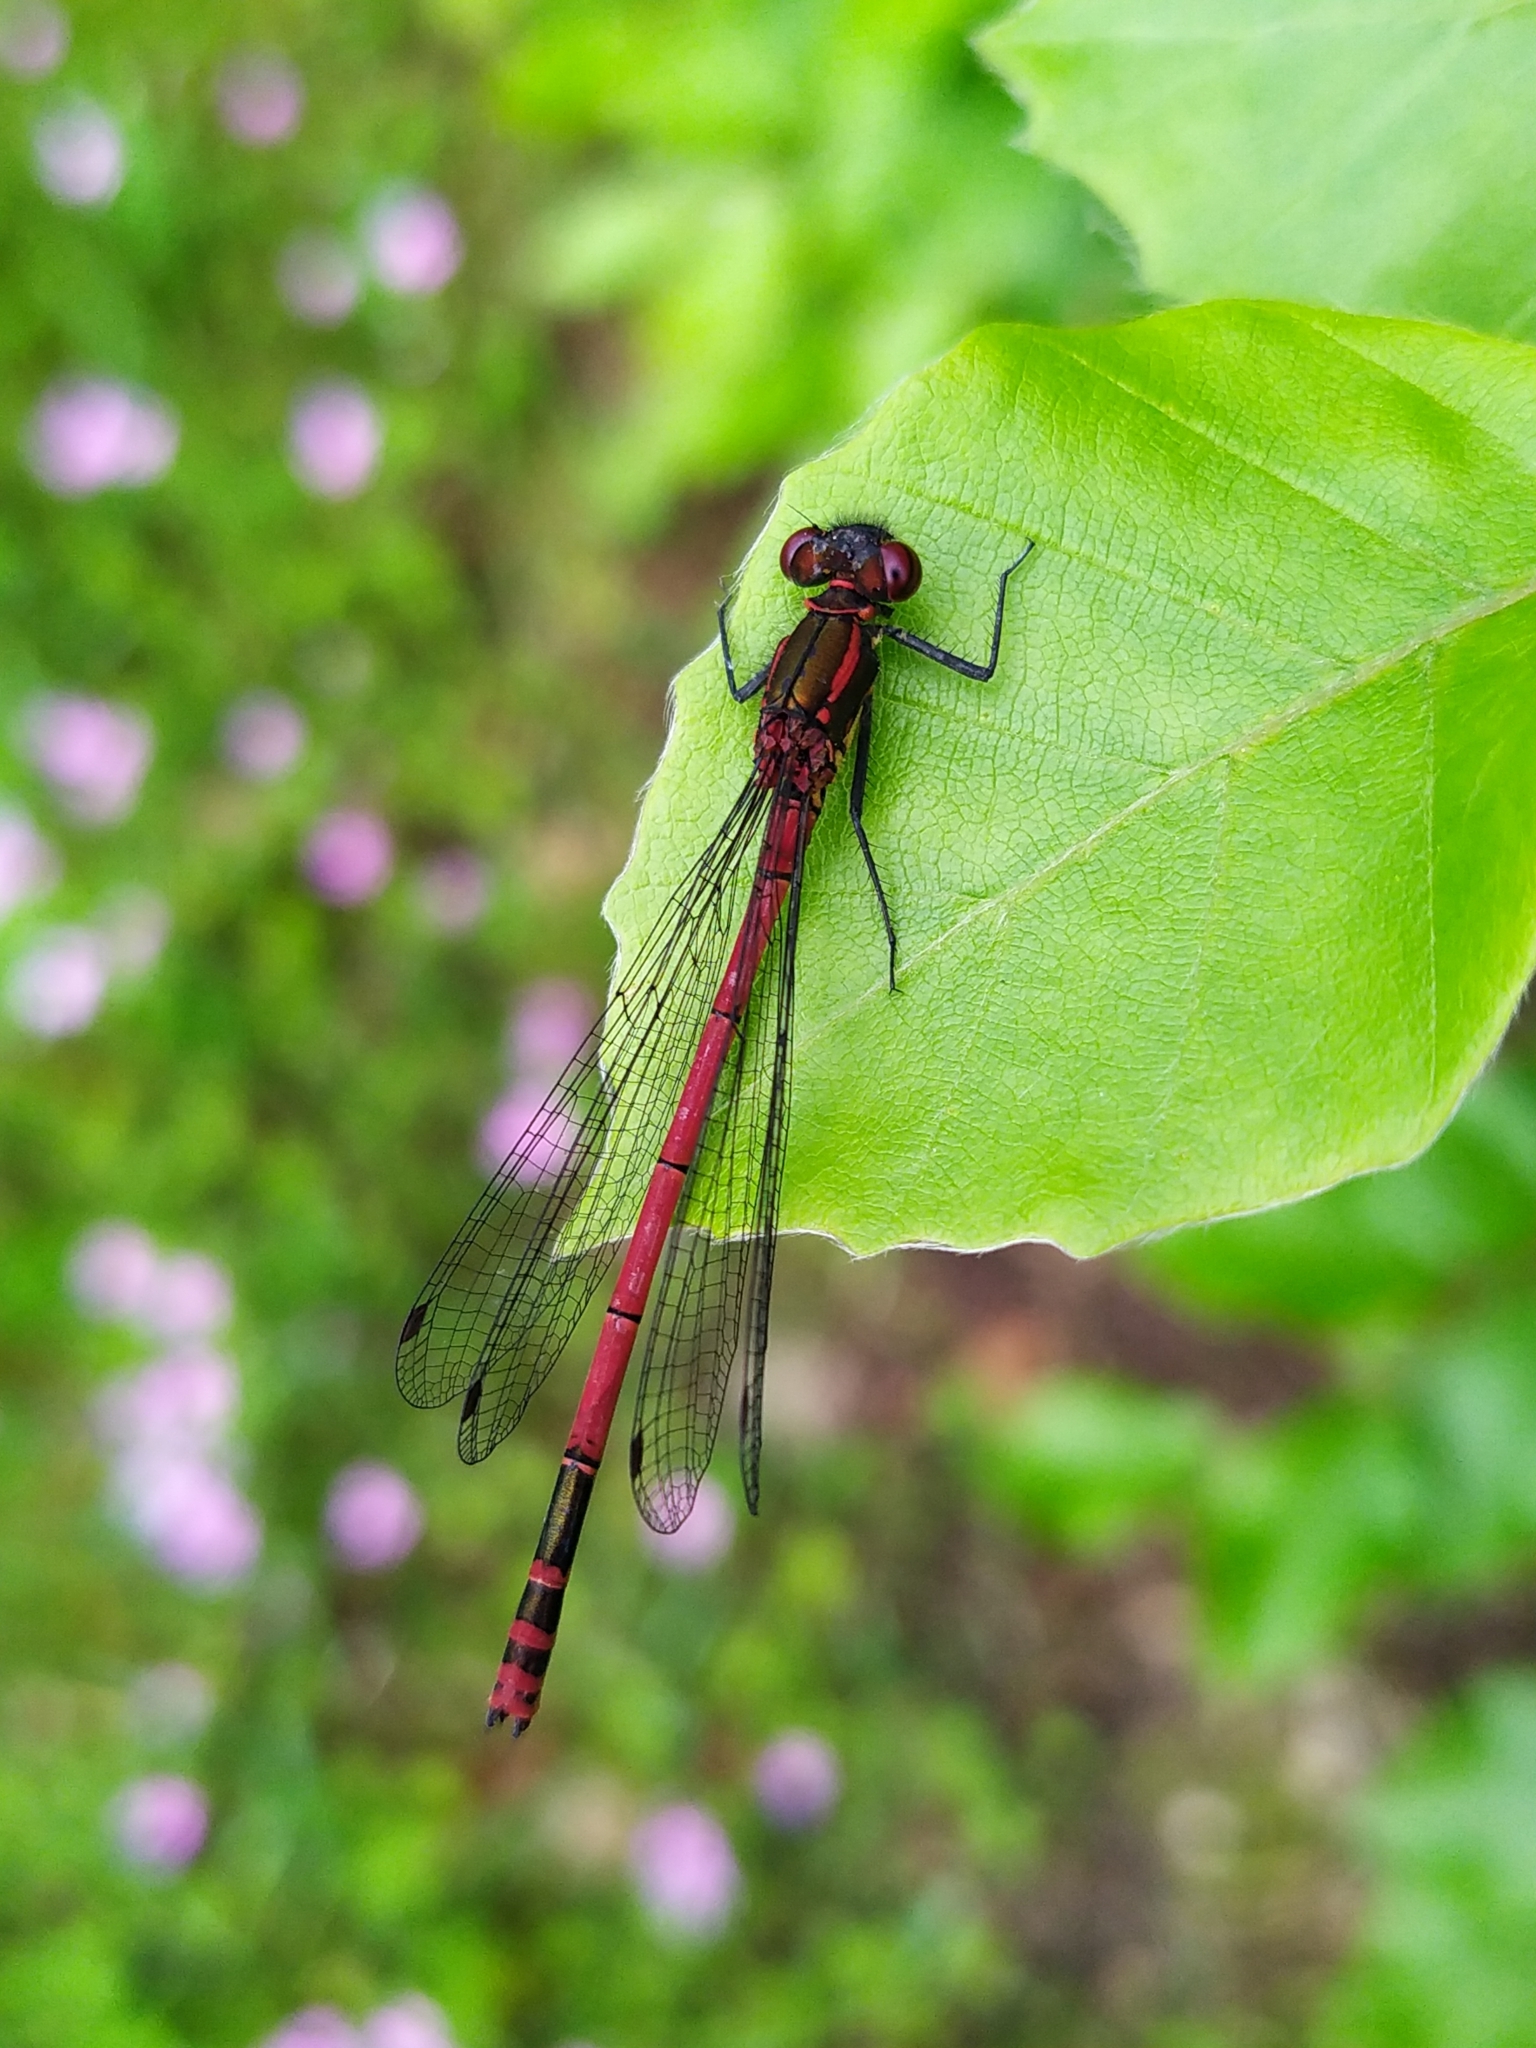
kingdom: Animalia
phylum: Arthropoda
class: Insecta
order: Odonata
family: Coenagrionidae
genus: Pyrrhosoma
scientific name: Pyrrhosoma nymphula
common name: Large red damsel
